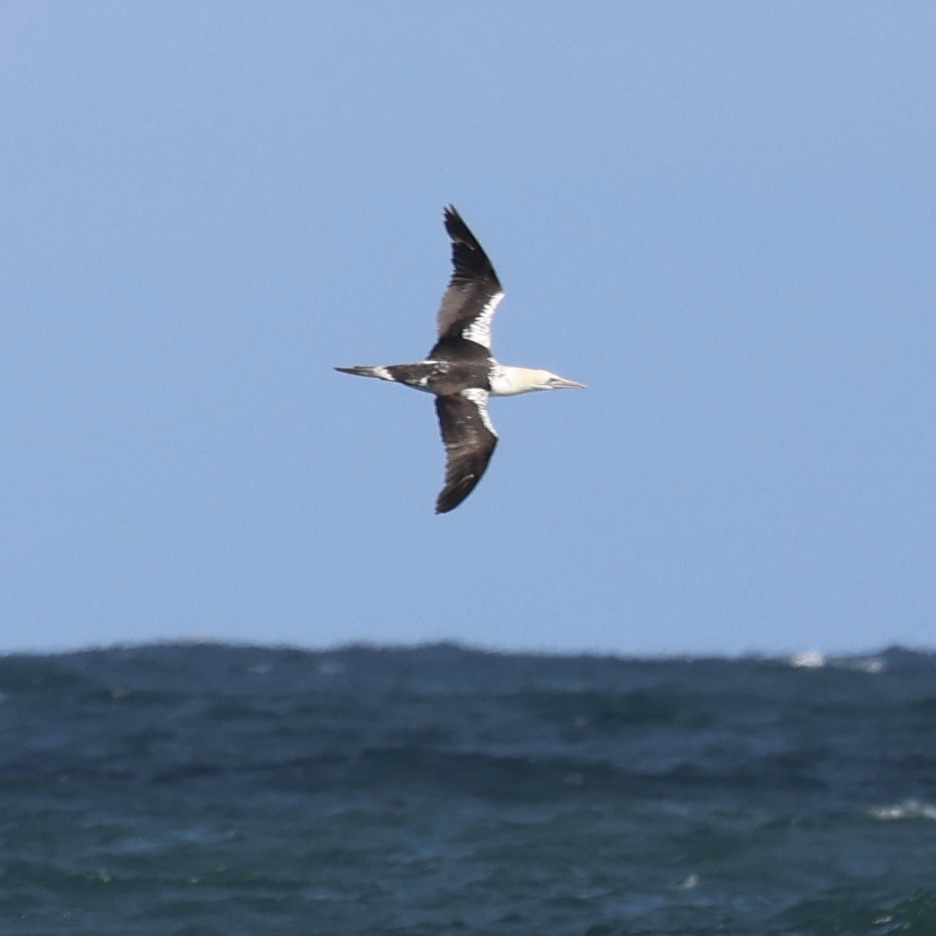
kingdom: Animalia
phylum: Chordata
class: Aves
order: Suliformes
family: Sulidae
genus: Morus
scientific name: Morus bassanus
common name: Northern gannet
